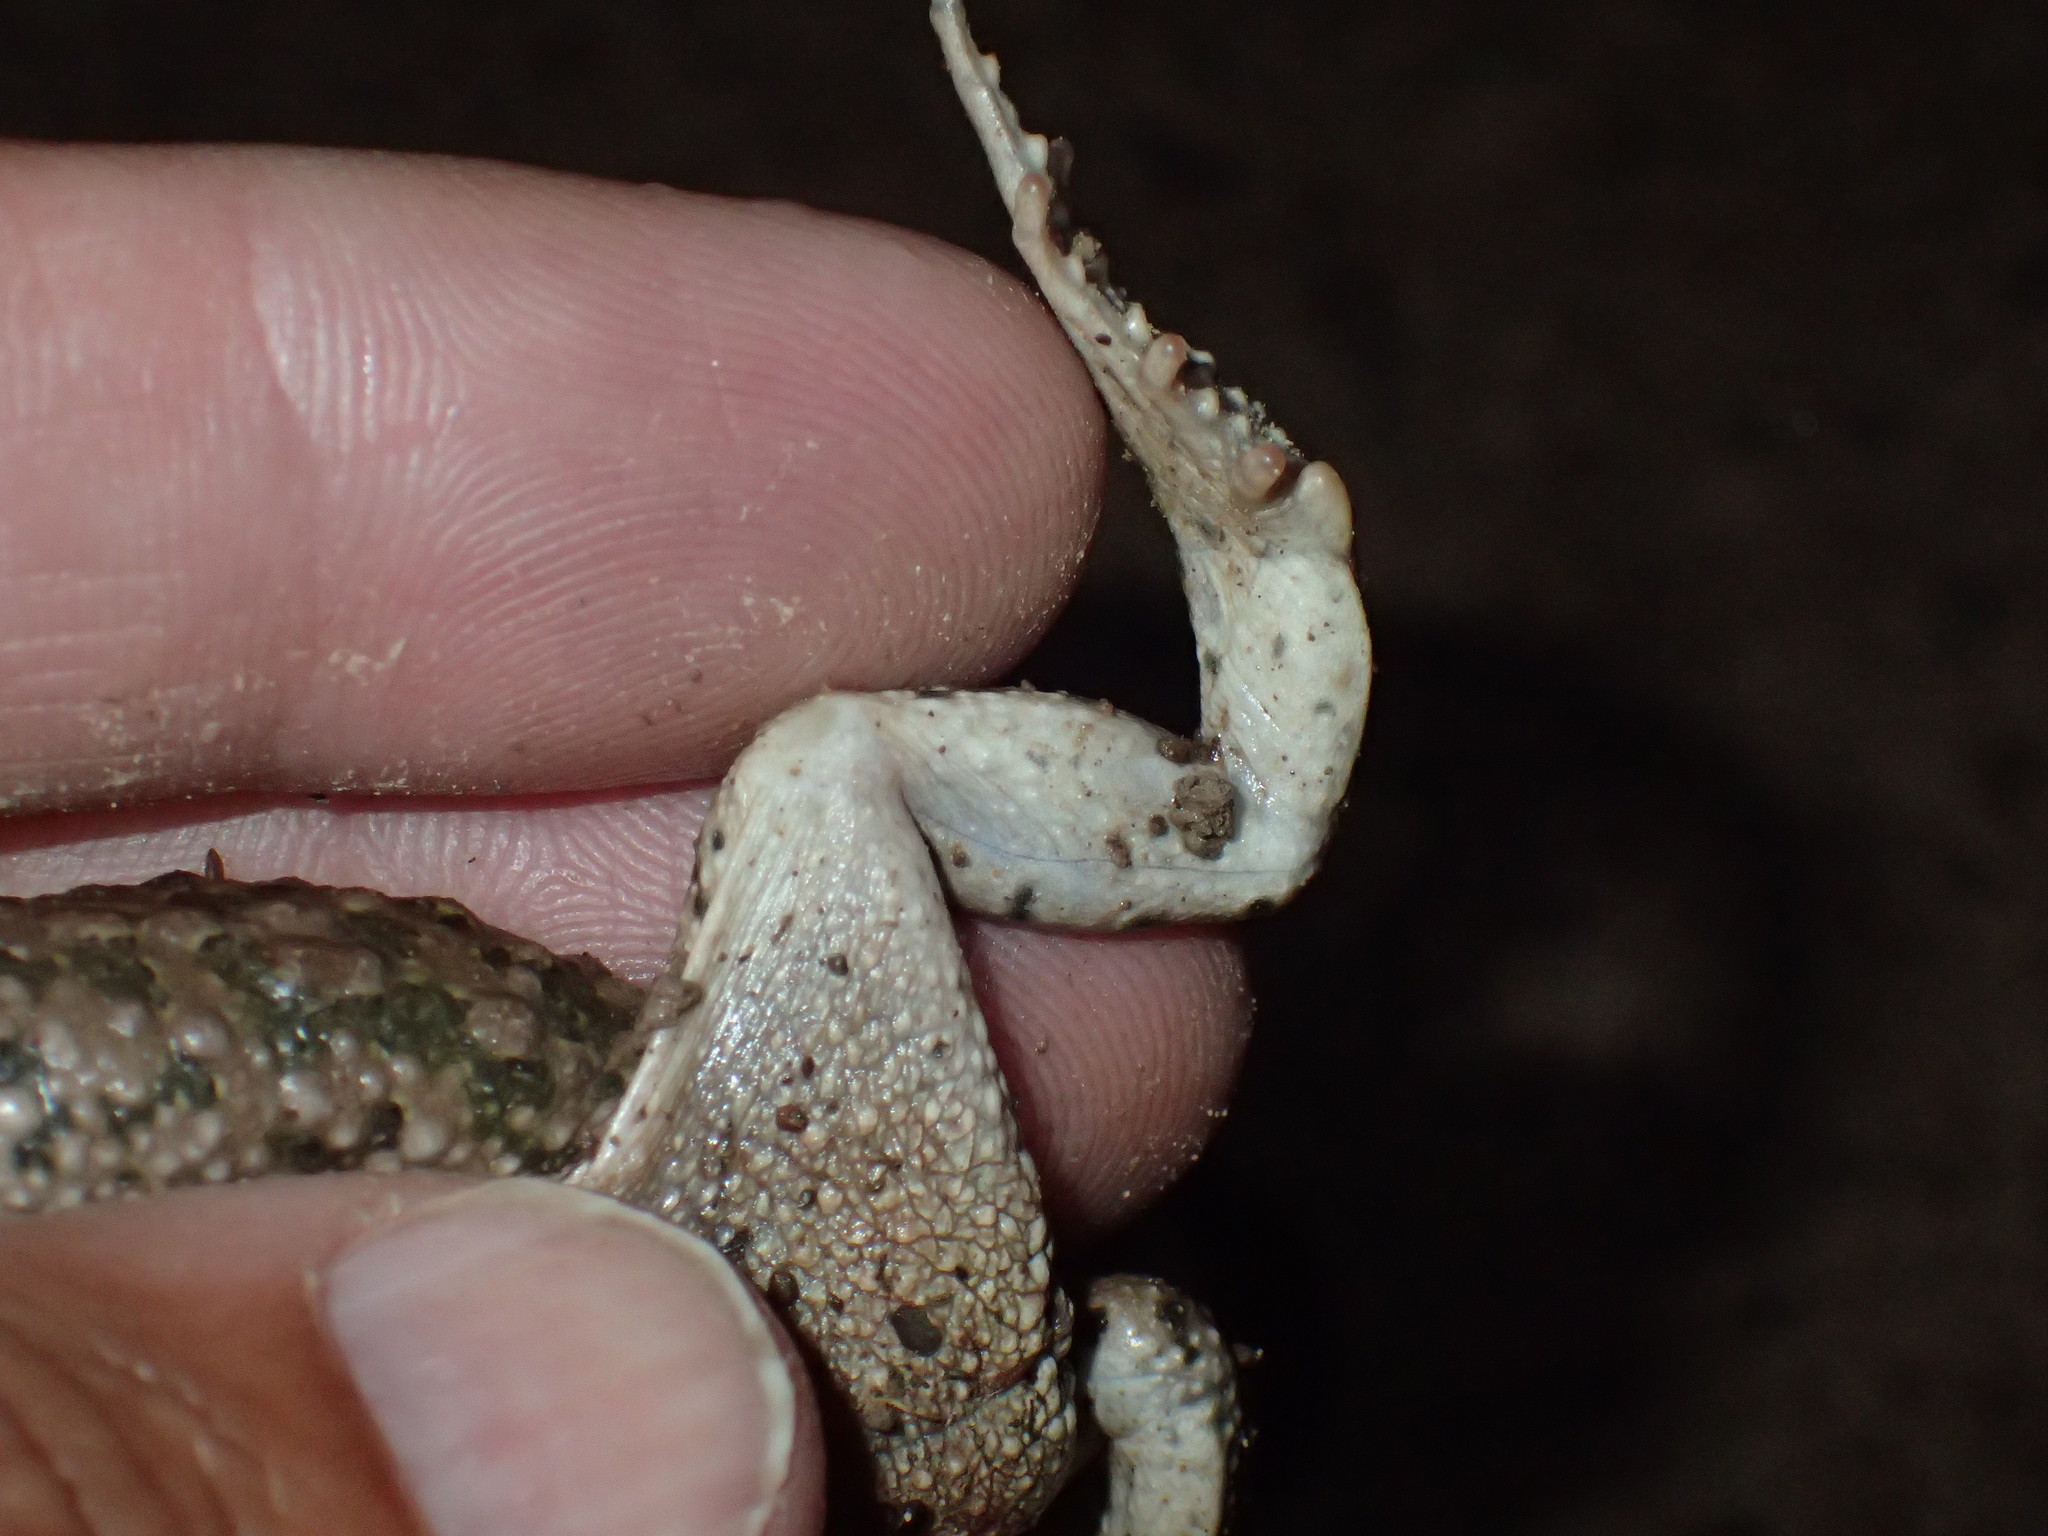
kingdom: Animalia
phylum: Chordata
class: Amphibia
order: Anura
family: Bufonidae
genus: Vandijkophrynus
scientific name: Vandijkophrynus gariepensis
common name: Gariep toad
